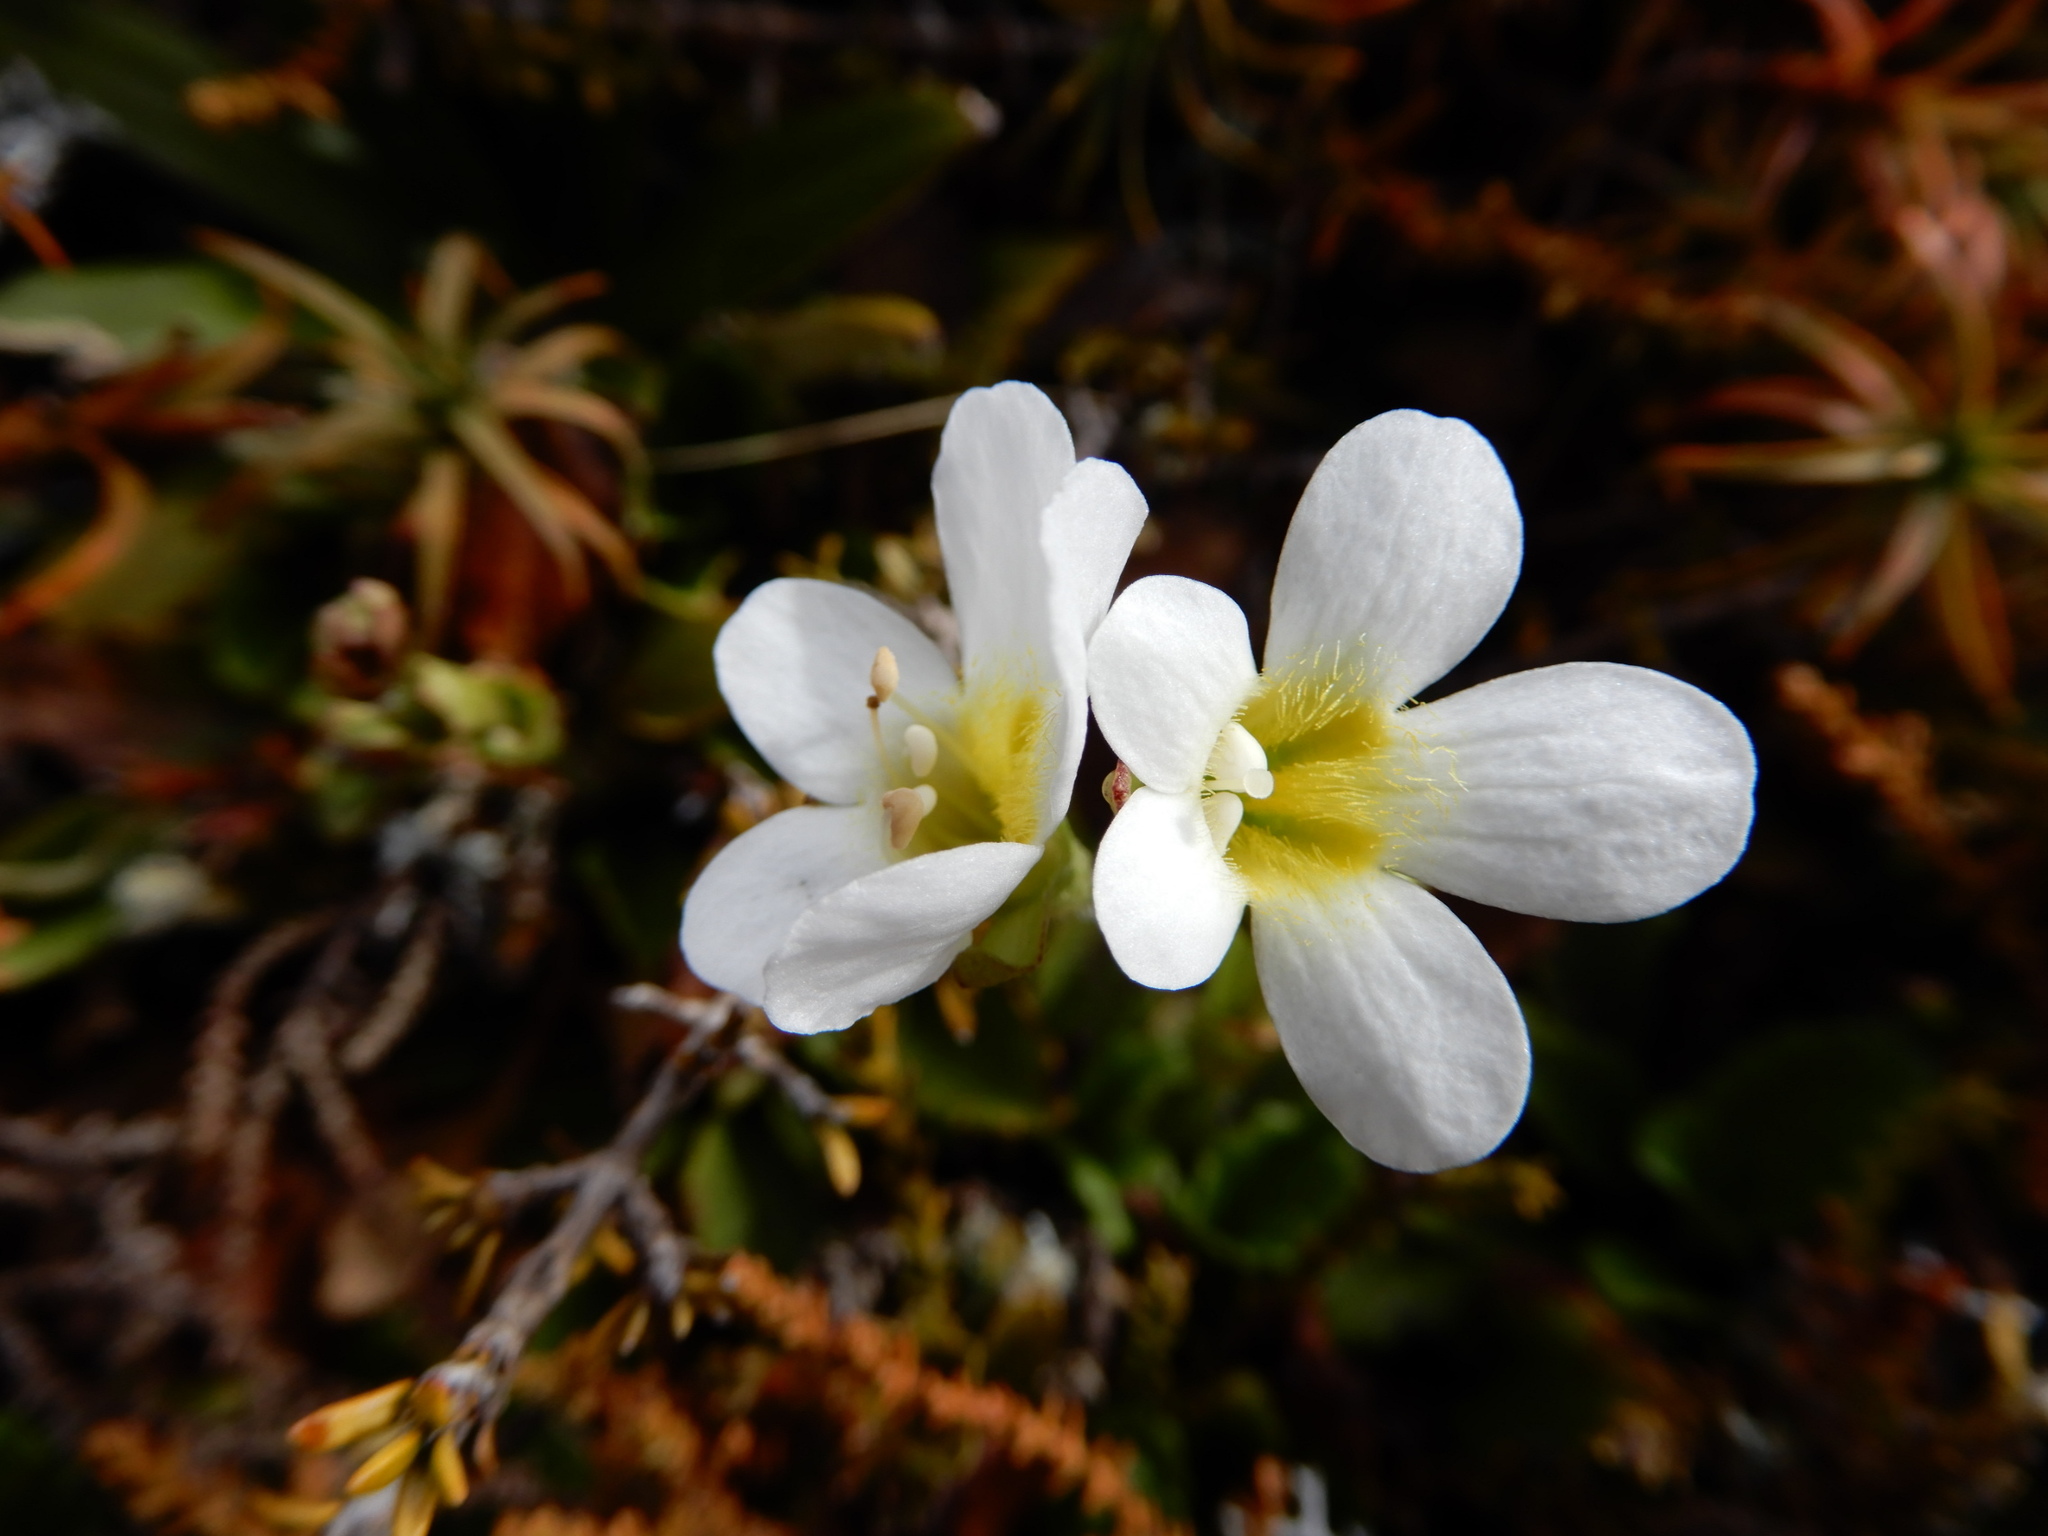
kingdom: Plantae
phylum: Tracheophyta
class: Magnoliopsida
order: Lamiales
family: Plantaginaceae
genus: Ourisia
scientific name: Ourisia vulcanica
